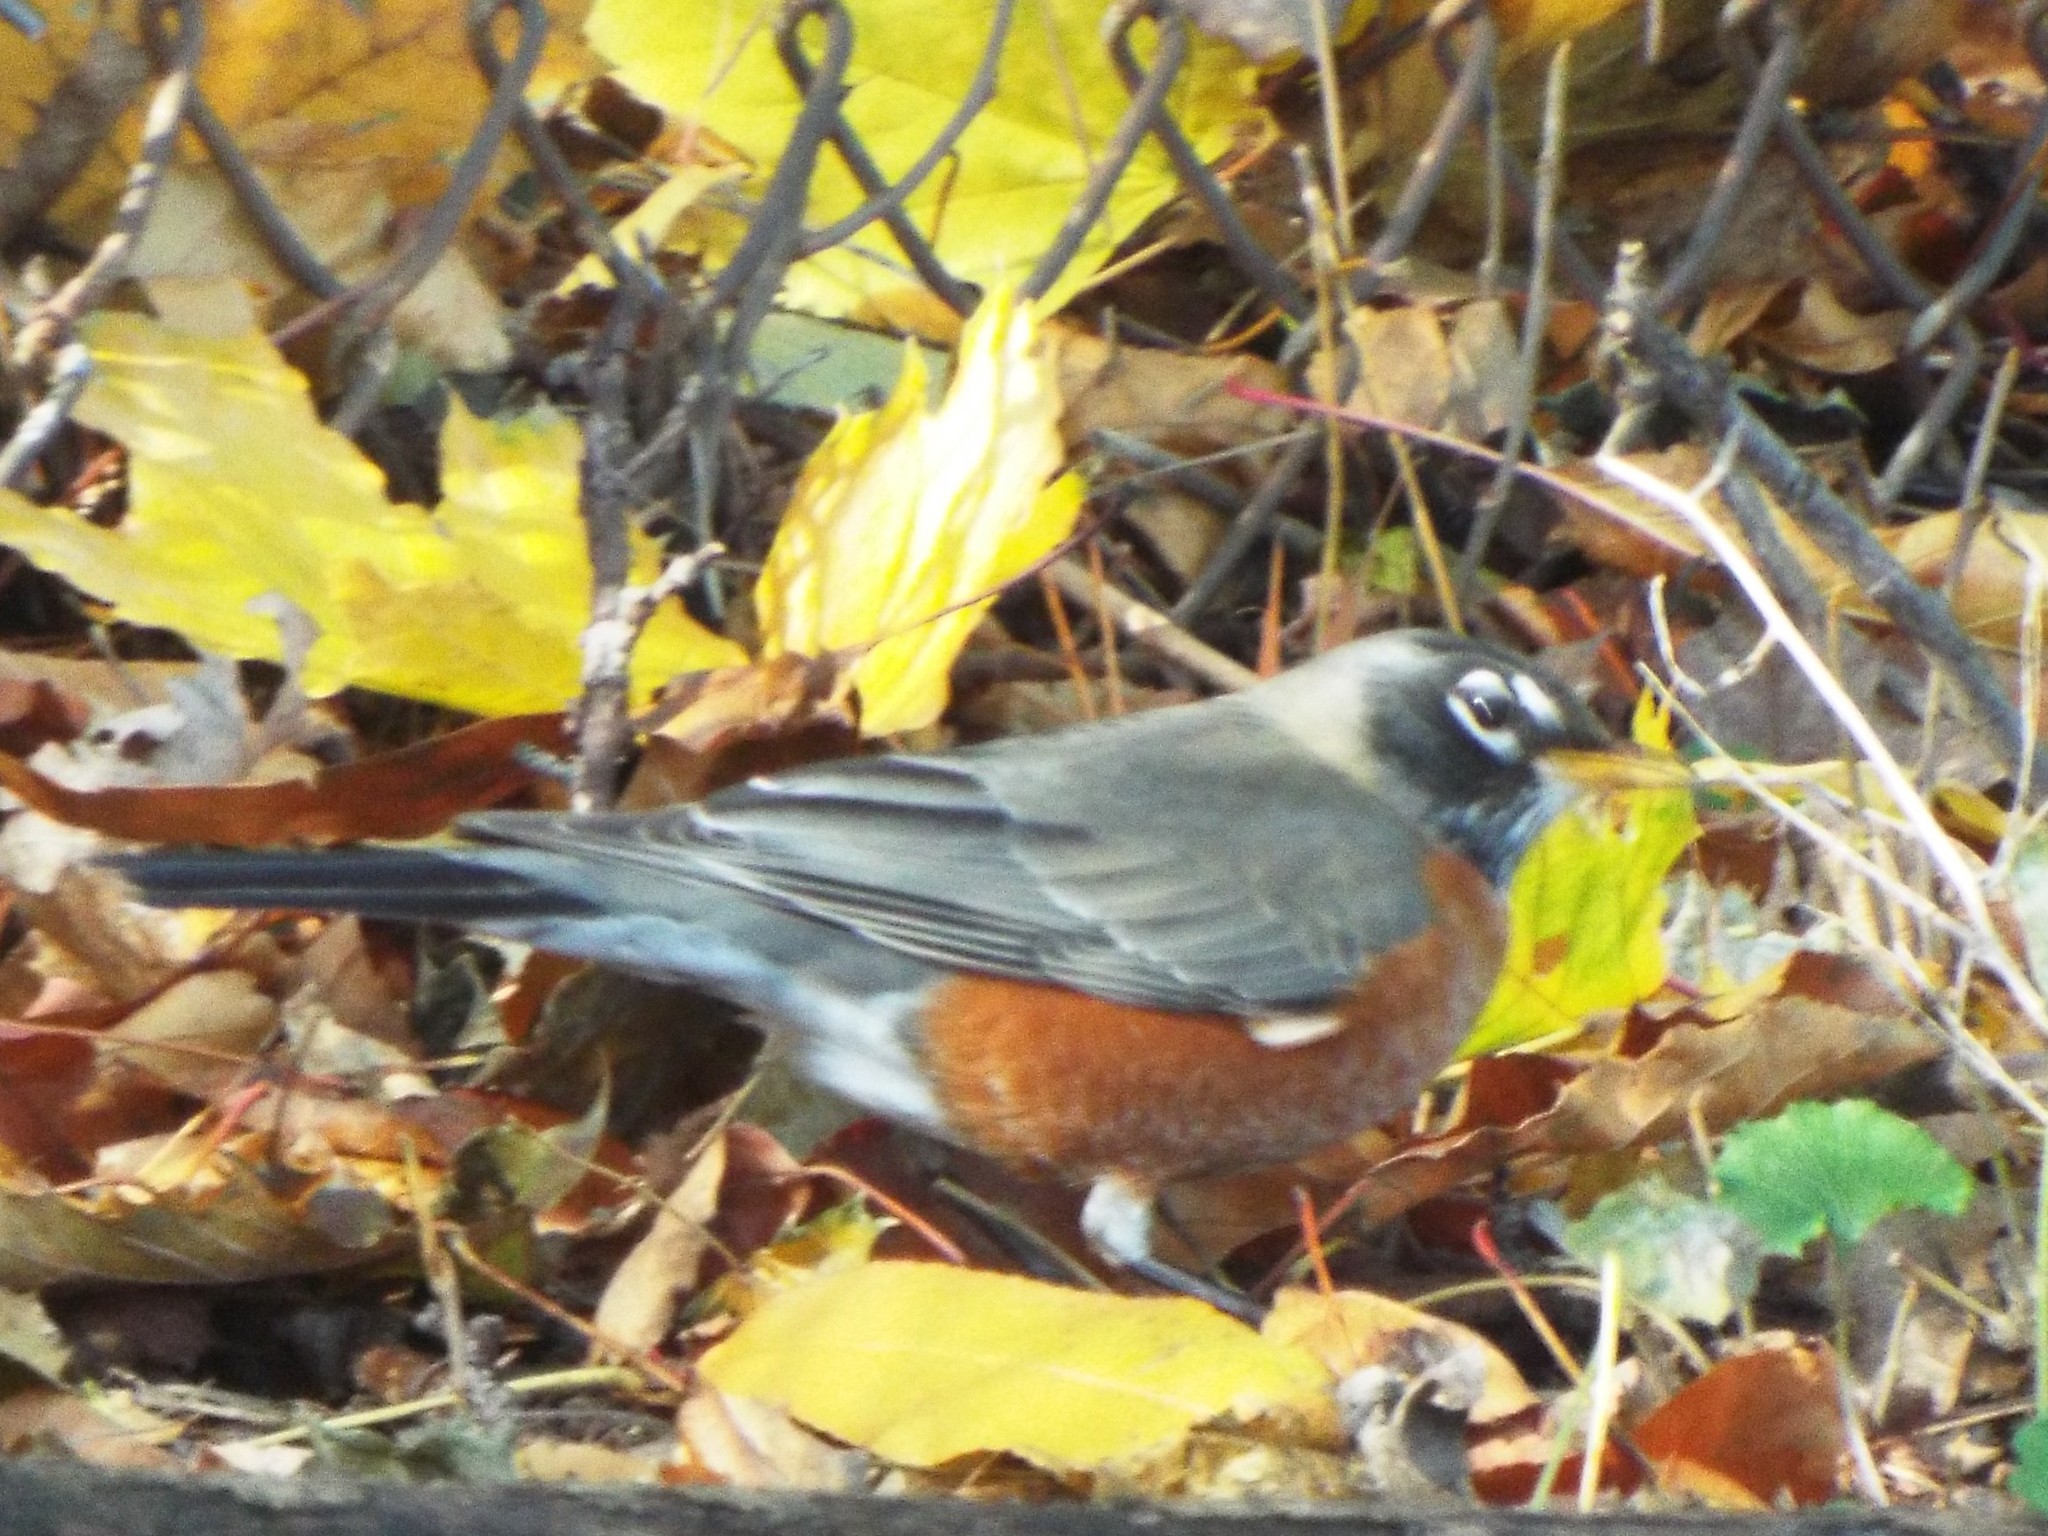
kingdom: Animalia
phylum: Chordata
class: Aves
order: Passeriformes
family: Turdidae
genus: Turdus
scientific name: Turdus migratorius
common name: American robin
